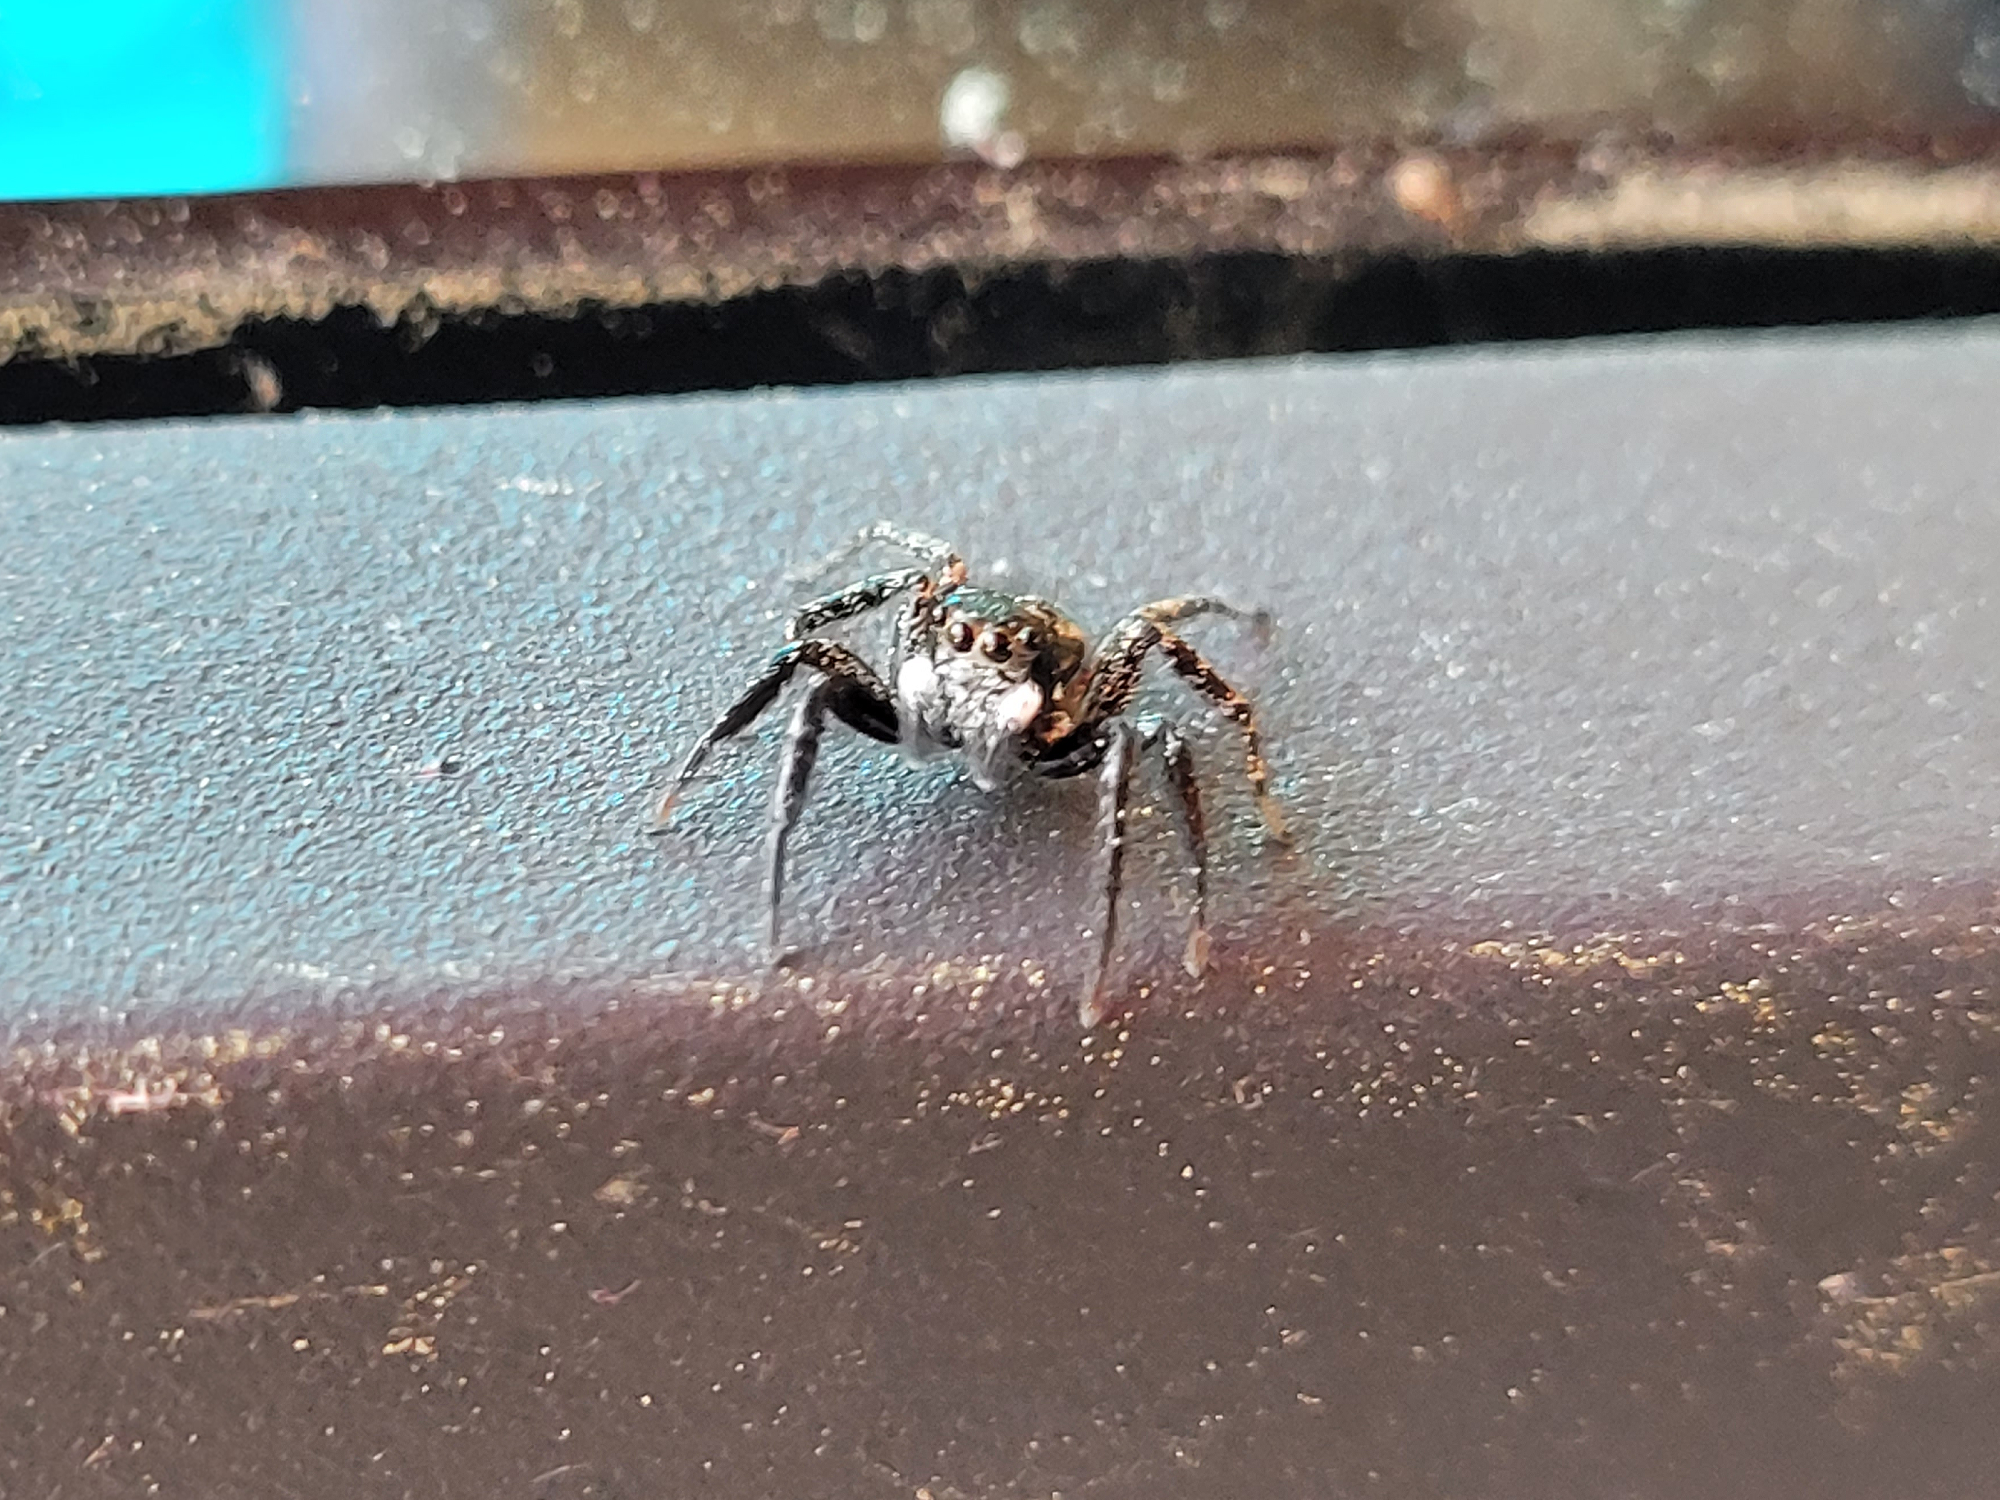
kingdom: Animalia
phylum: Arthropoda
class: Arachnida
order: Araneae
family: Salticidae
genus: Anasaitis
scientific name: Anasaitis canosa
